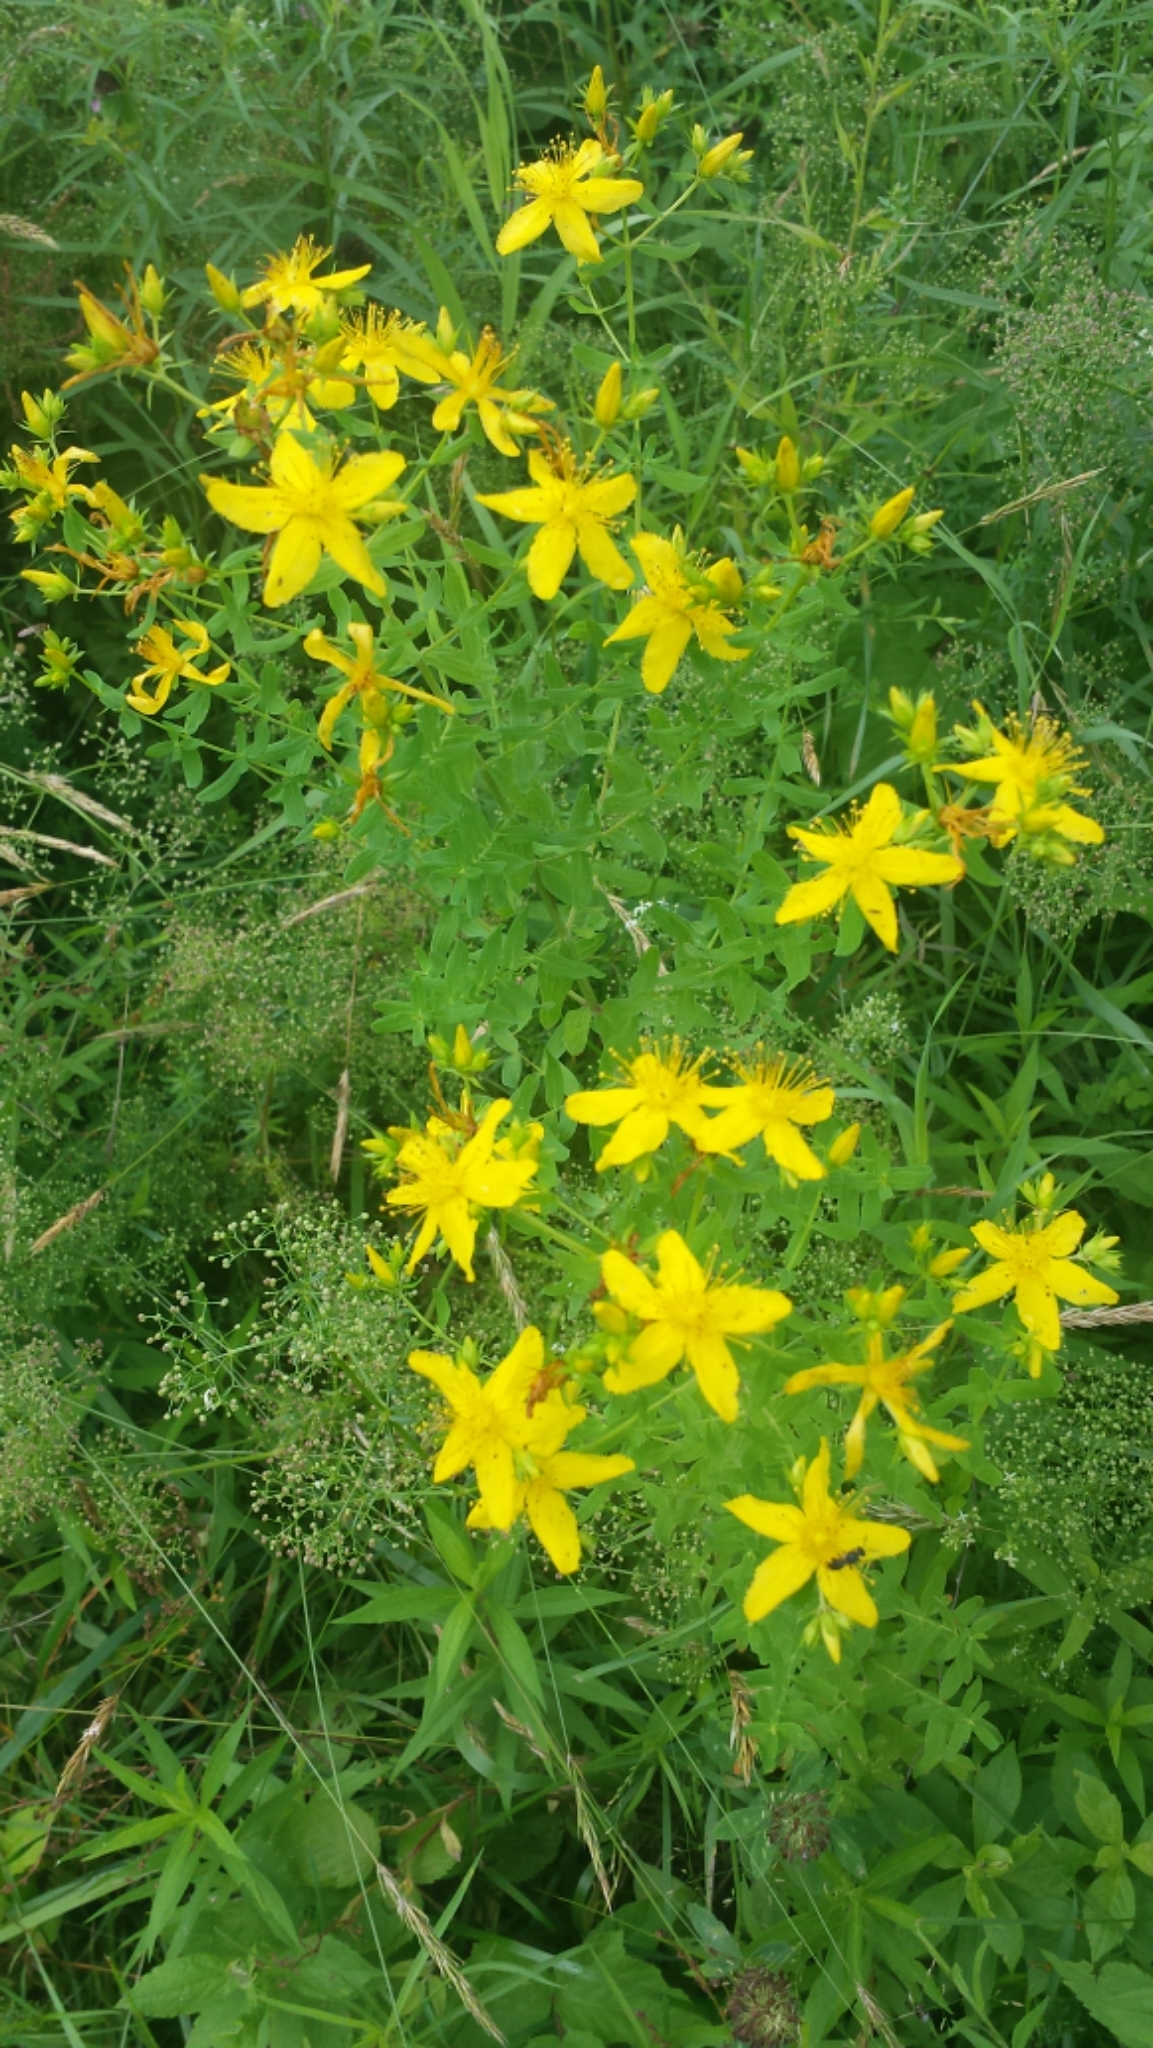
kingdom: Plantae
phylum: Tracheophyta
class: Magnoliopsida
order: Malpighiales
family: Hypericaceae
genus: Hypericum
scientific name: Hypericum perforatum
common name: Common st. johnswort
